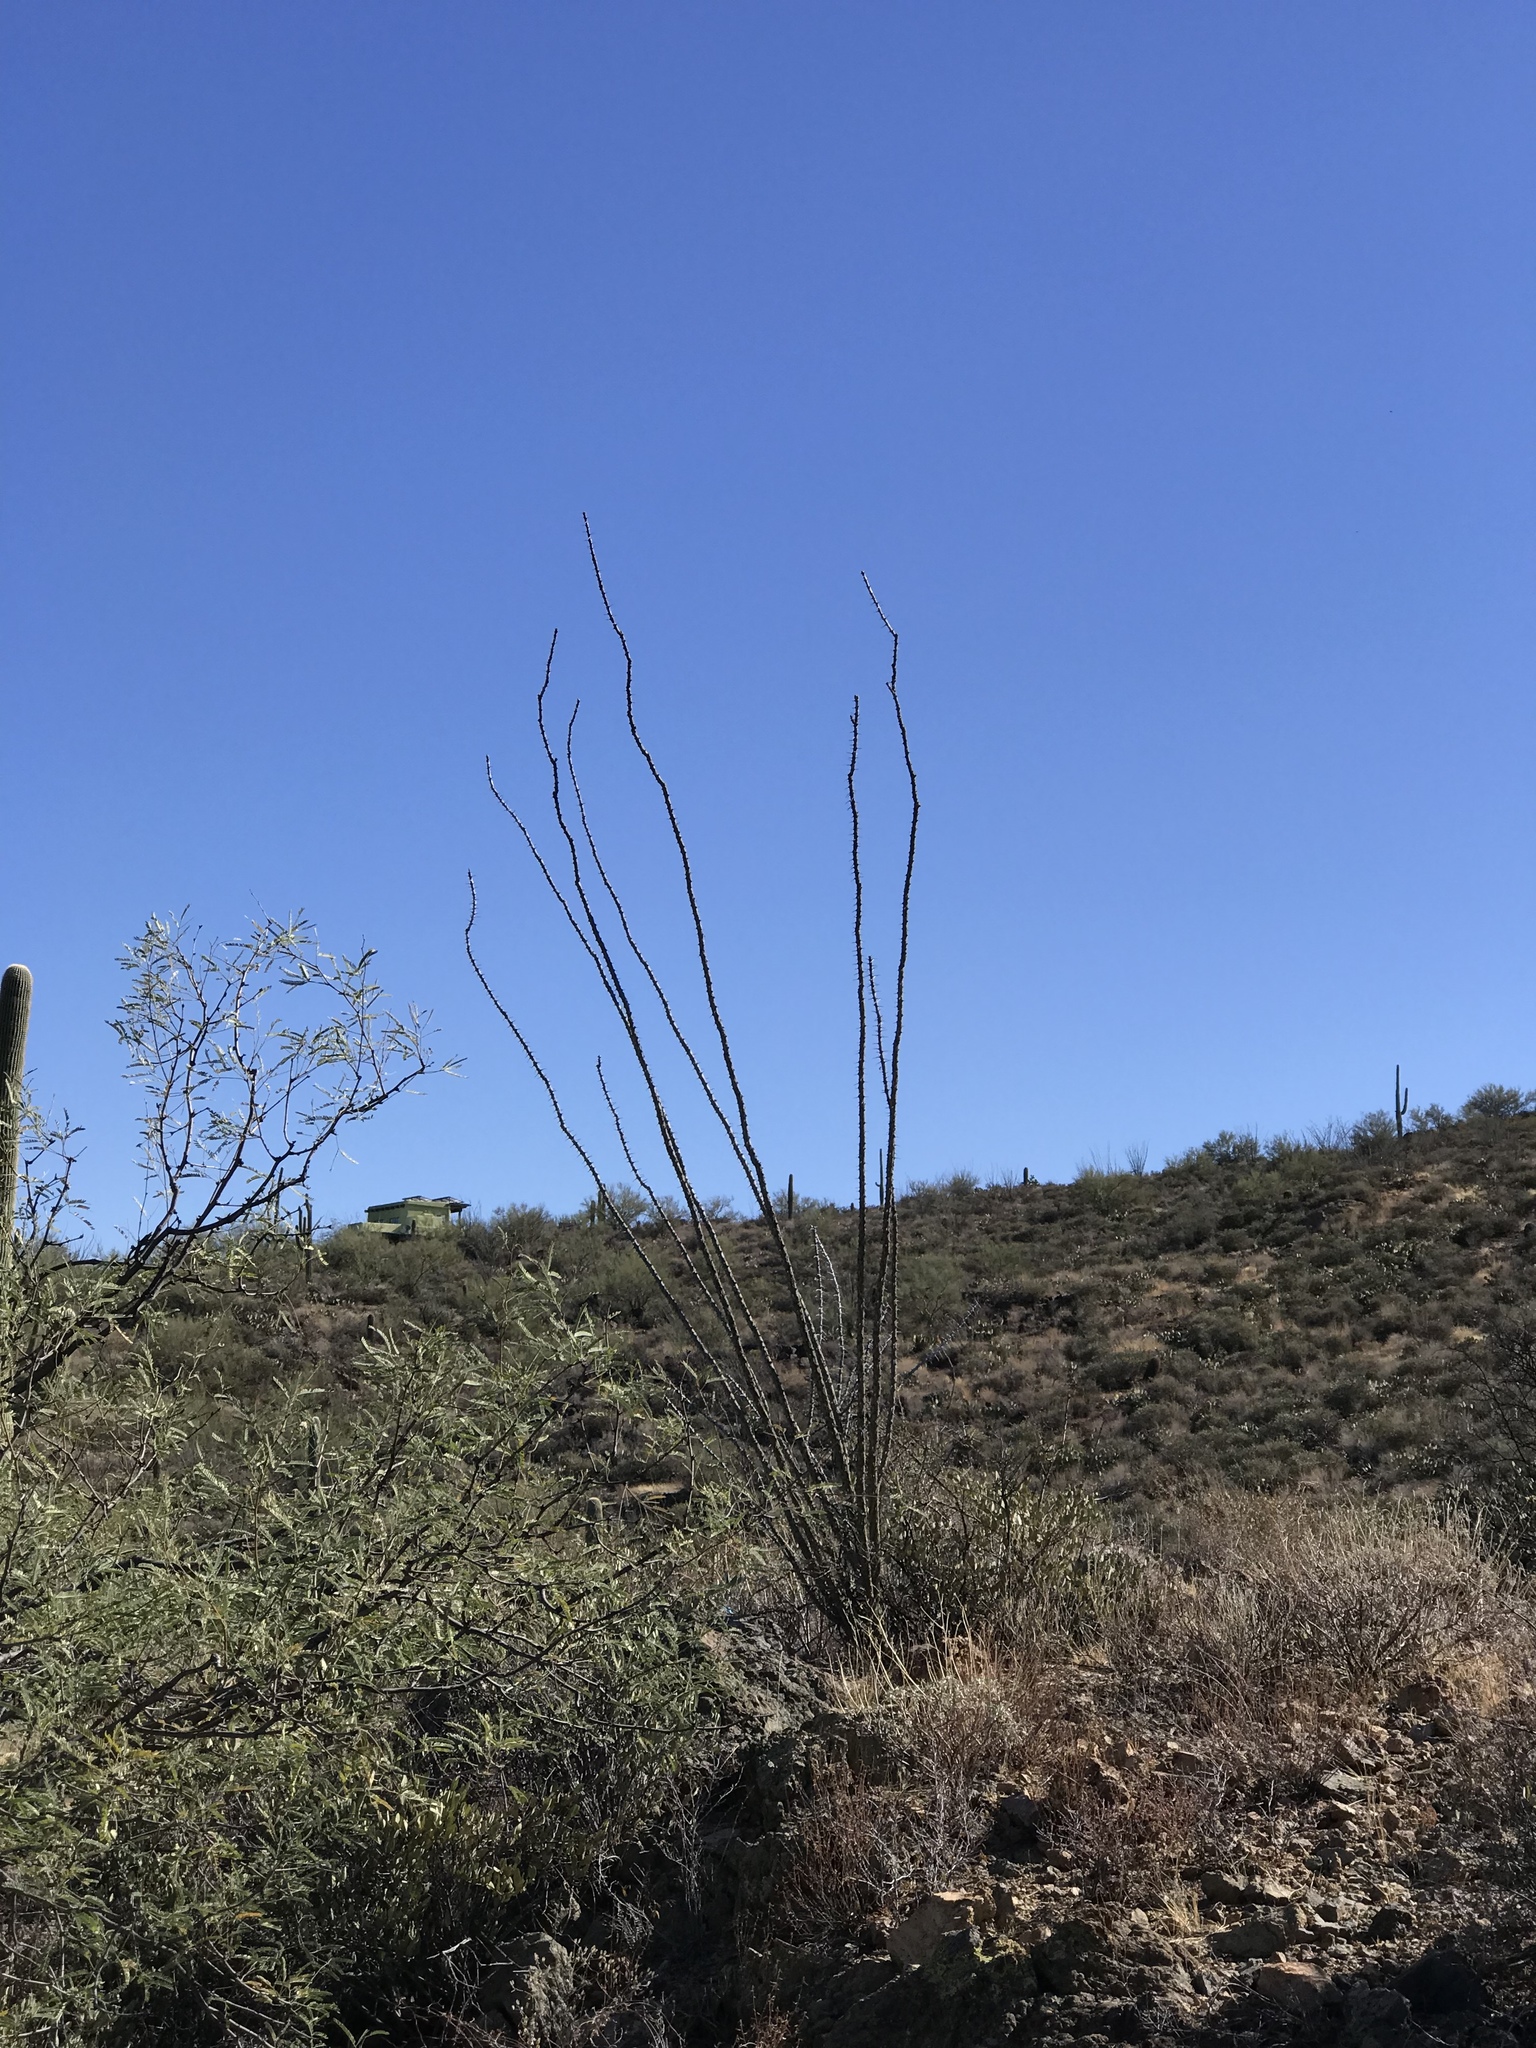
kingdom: Plantae
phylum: Tracheophyta
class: Magnoliopsida
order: Ericales
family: Fouquieriaceae
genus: Fouquieria
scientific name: Fouquieria splendens
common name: Vine-cactus
